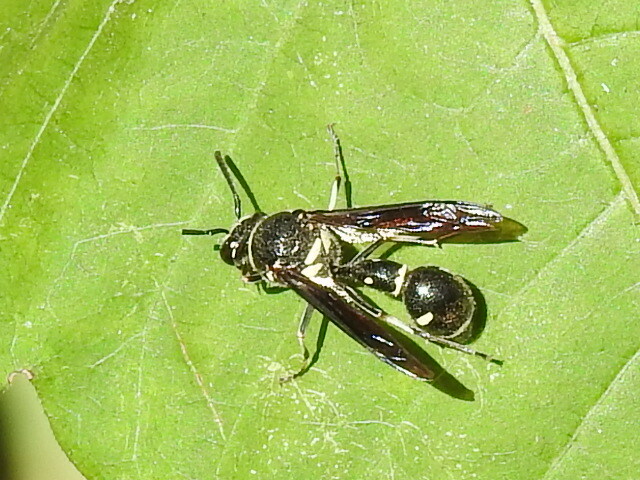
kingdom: Animalia
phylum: Arthropoda
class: Insecta
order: Hymenoptera
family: Vespidae
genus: Eumenes
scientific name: Eumenes fraternus
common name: Fraternal potter wasp
